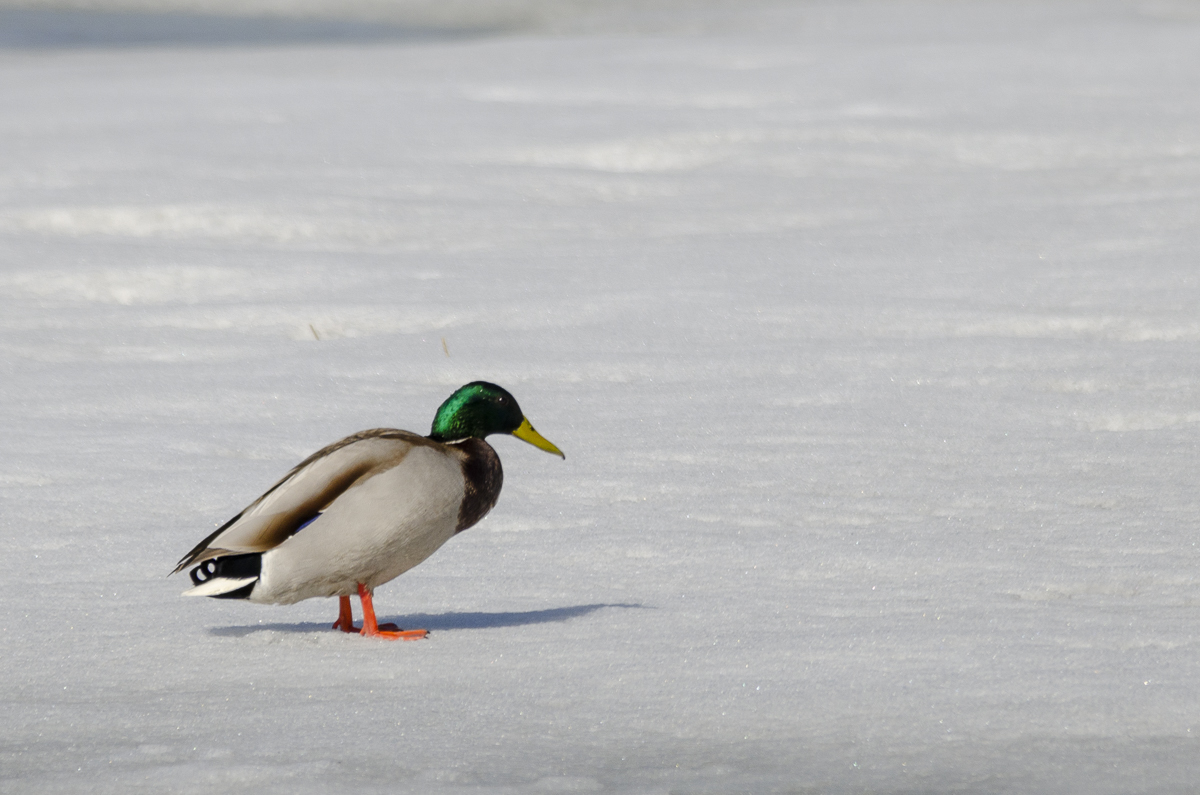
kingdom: Animalia
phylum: Chordata
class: Aves
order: Anseriformes
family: Anatidae
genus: Anas
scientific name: Anas platyrhynchos
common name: Mallard
